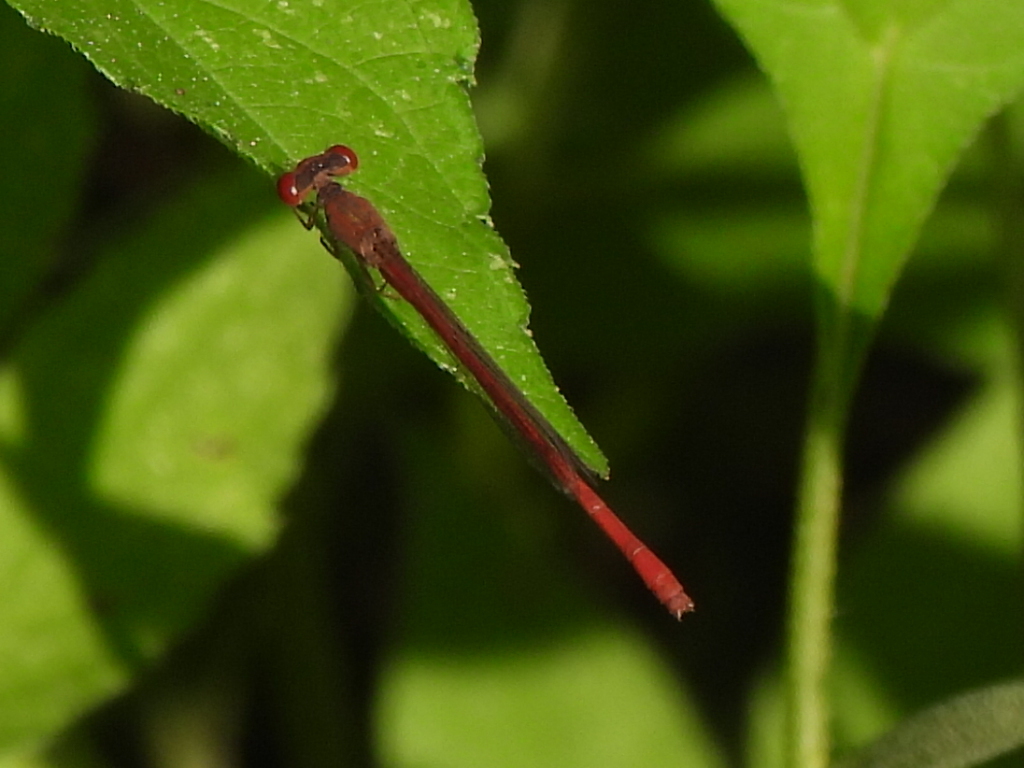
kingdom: Animalia
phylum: Arthropoda
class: Insecta
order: Odonata
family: Coenagrionidae
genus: Telebasis
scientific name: Telebasis salva
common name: Desert firetail
